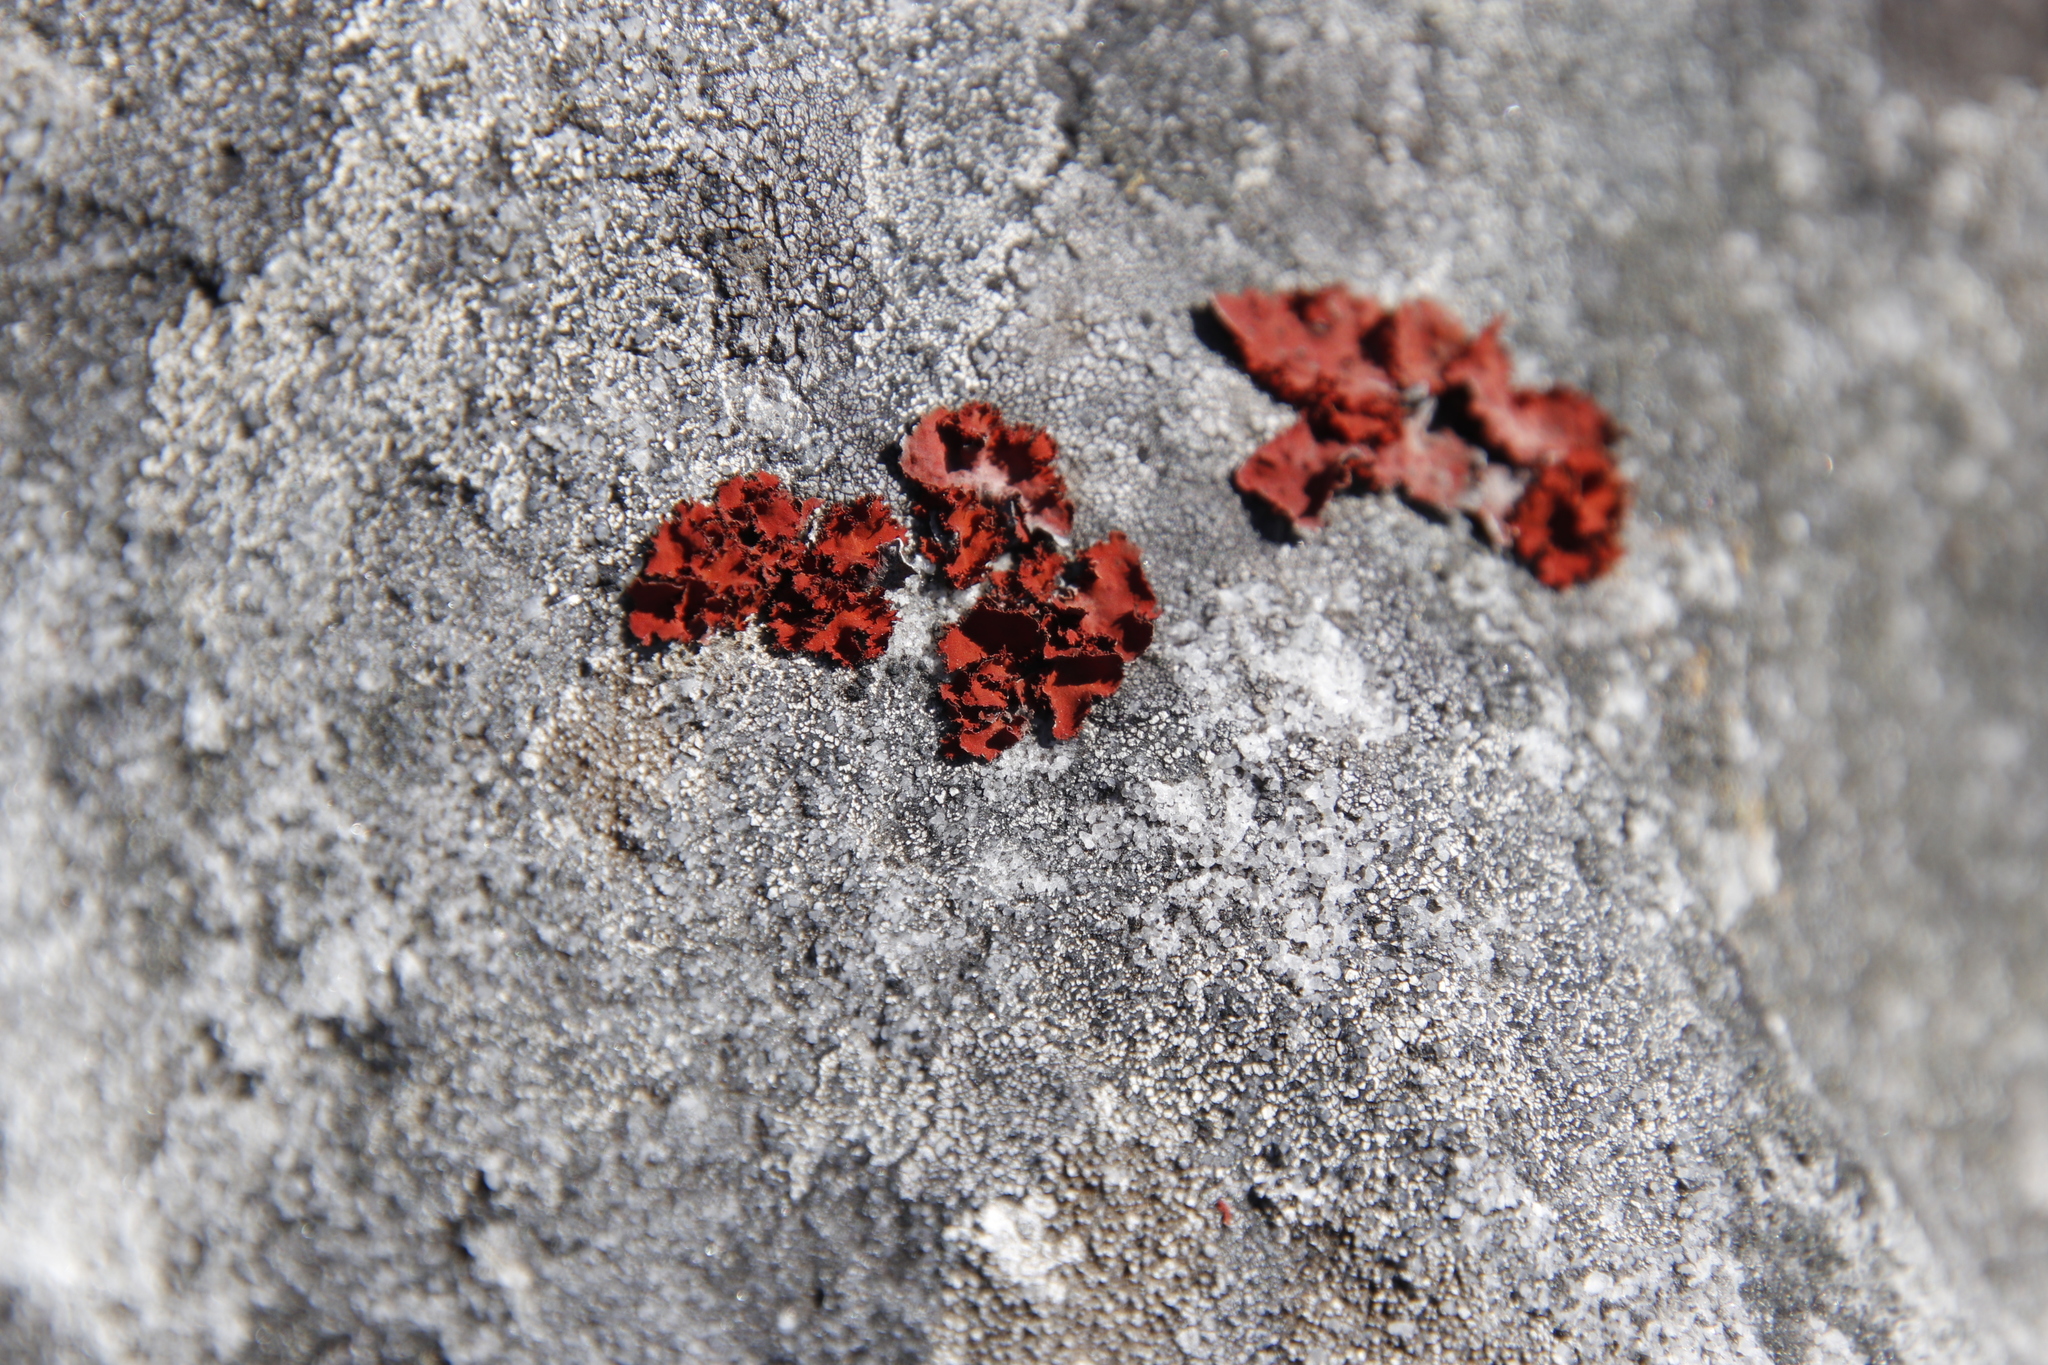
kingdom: Fungi
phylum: Ascomycota
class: Lecanoromycetes
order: Umbilicariales
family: Umbilicariaceae
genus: Lasallia
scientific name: Lasallia rubiginosa
